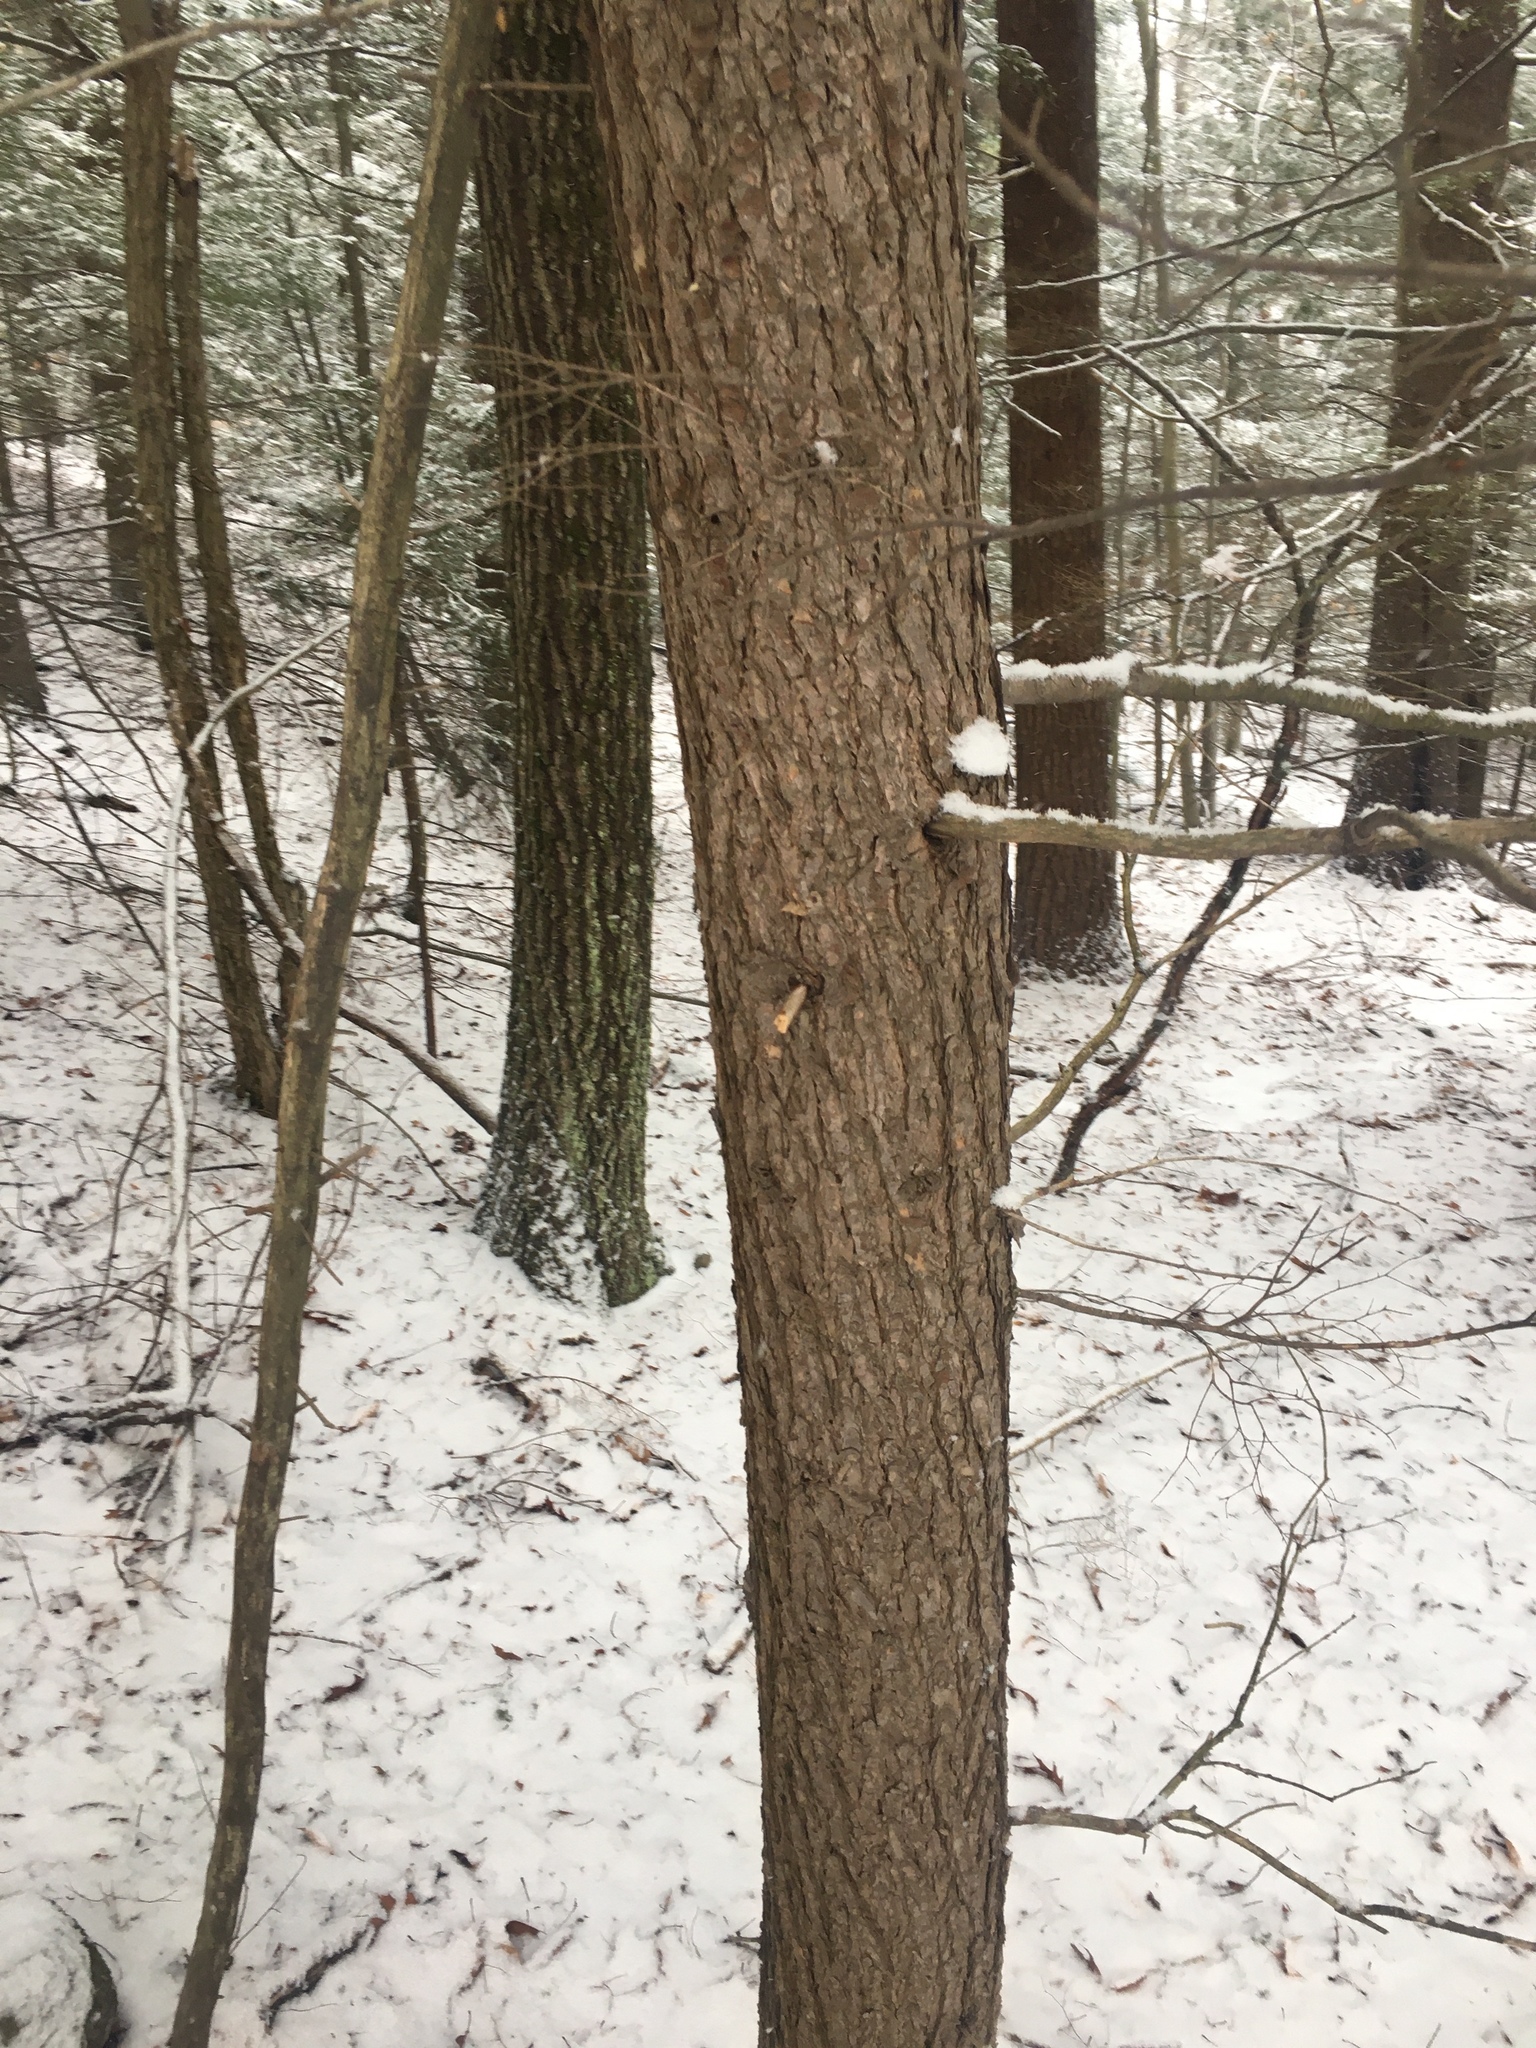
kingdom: Plantae
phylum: Tracheophyta
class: Pinopsida
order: Pinales
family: Pinaceae
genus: Tsuga
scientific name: Tsuga canadensis
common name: Eastern hemlock
